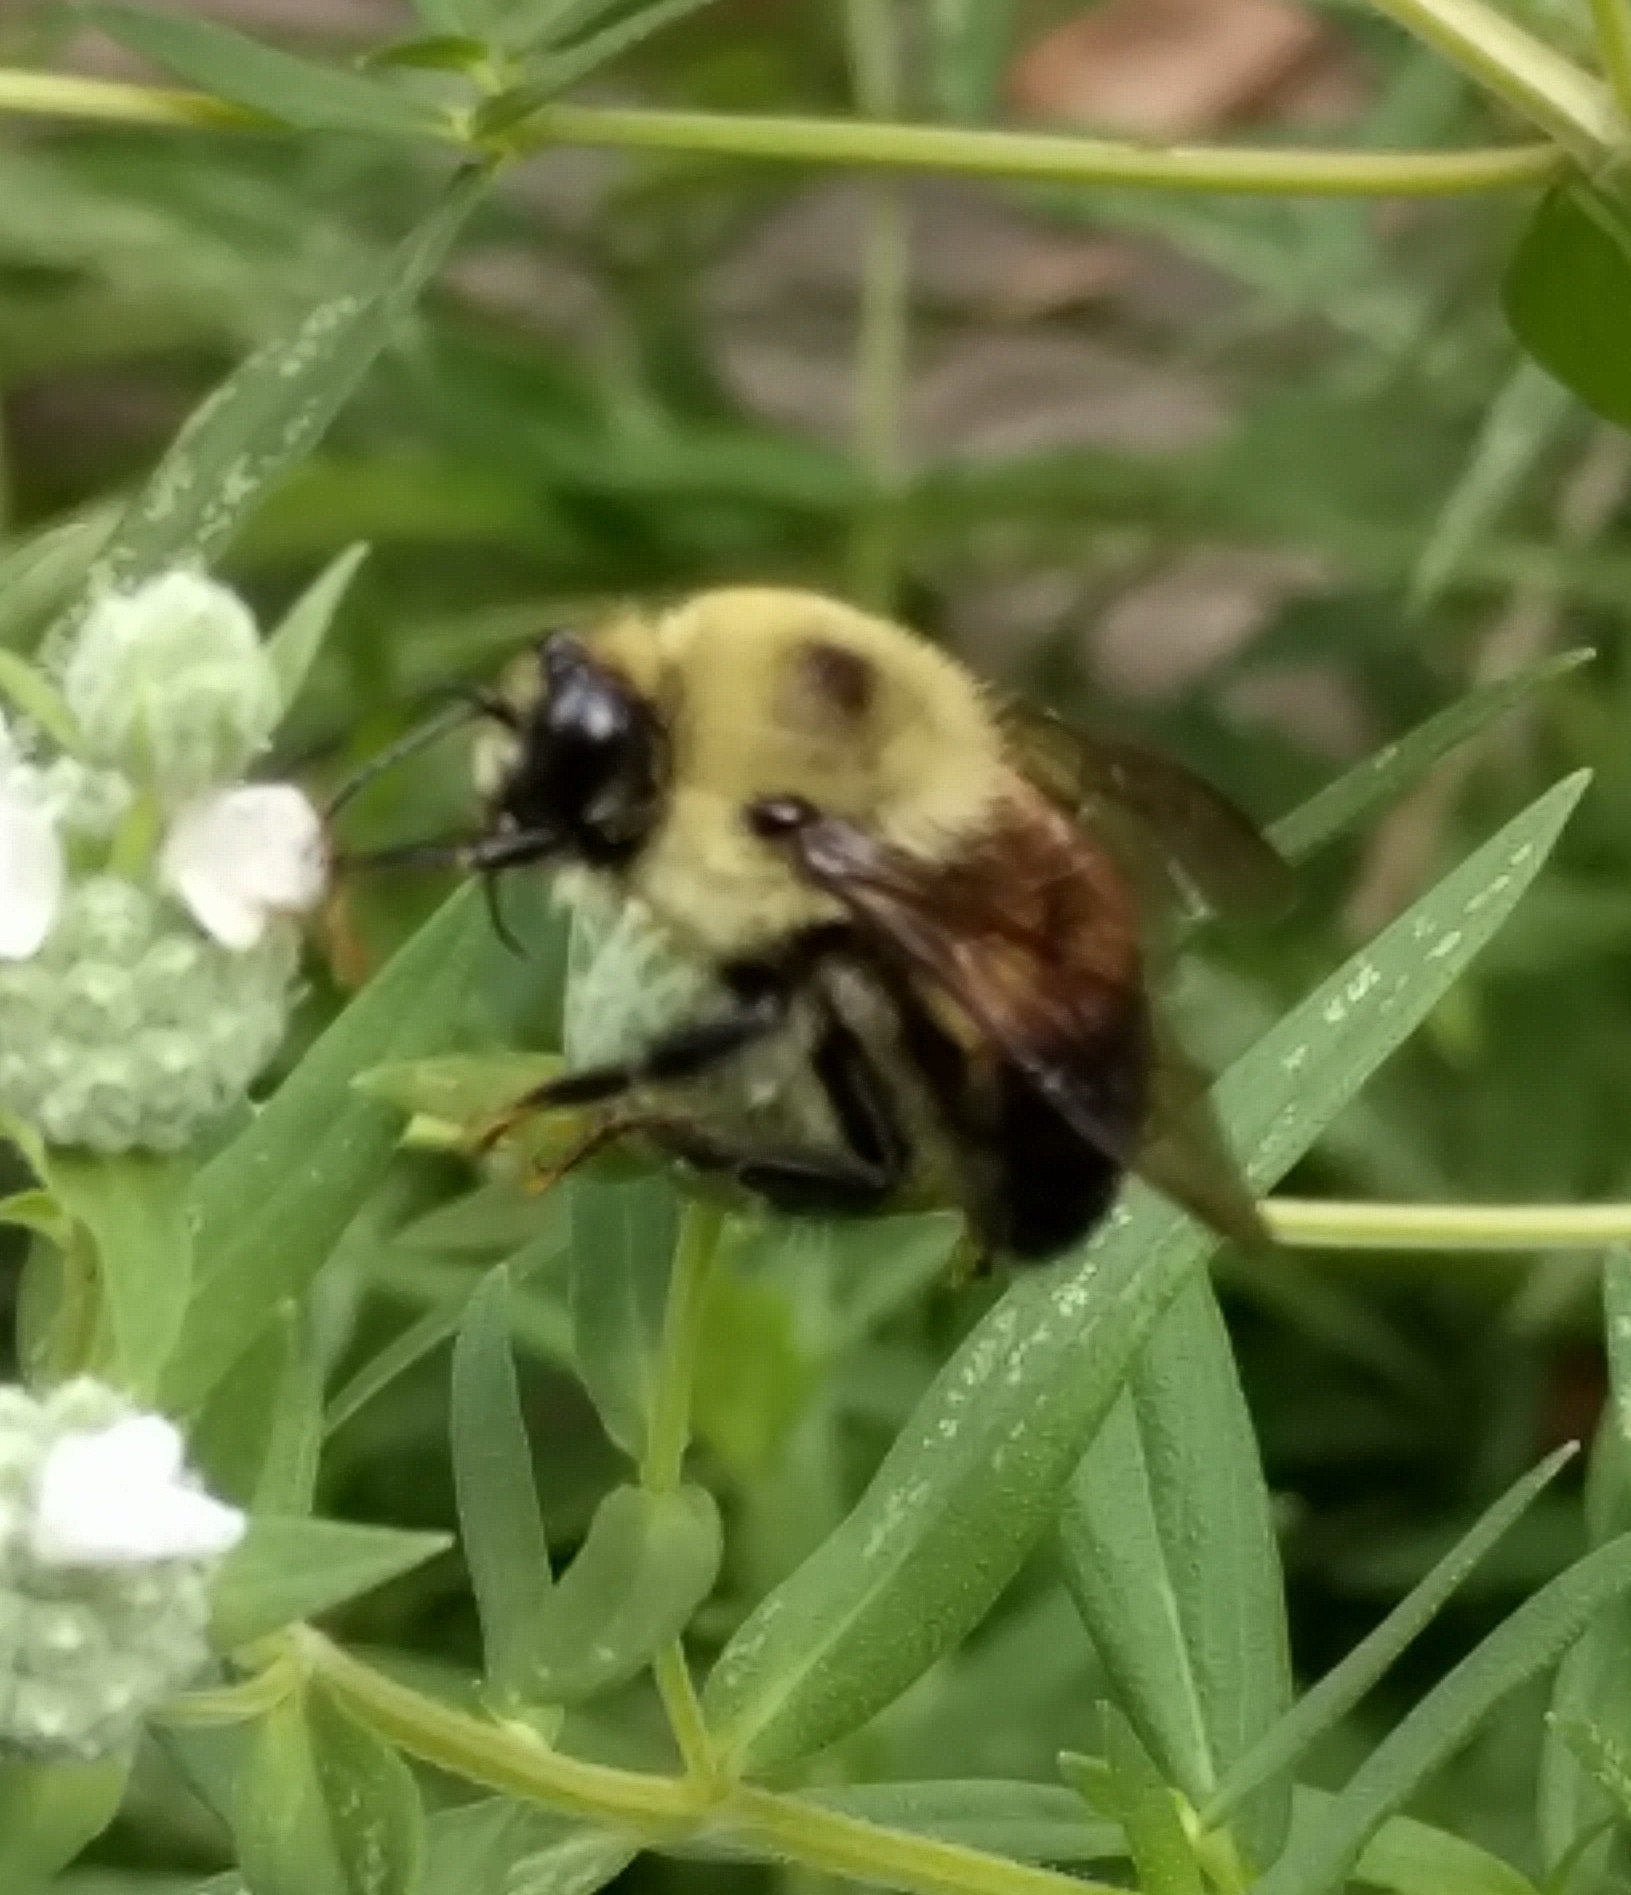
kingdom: Animalia
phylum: Arthropoda
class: Insecta
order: Hymenoptera
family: Apidae
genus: Bombus
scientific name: Bombus griseocollis
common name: Brown-belted bumble bee
